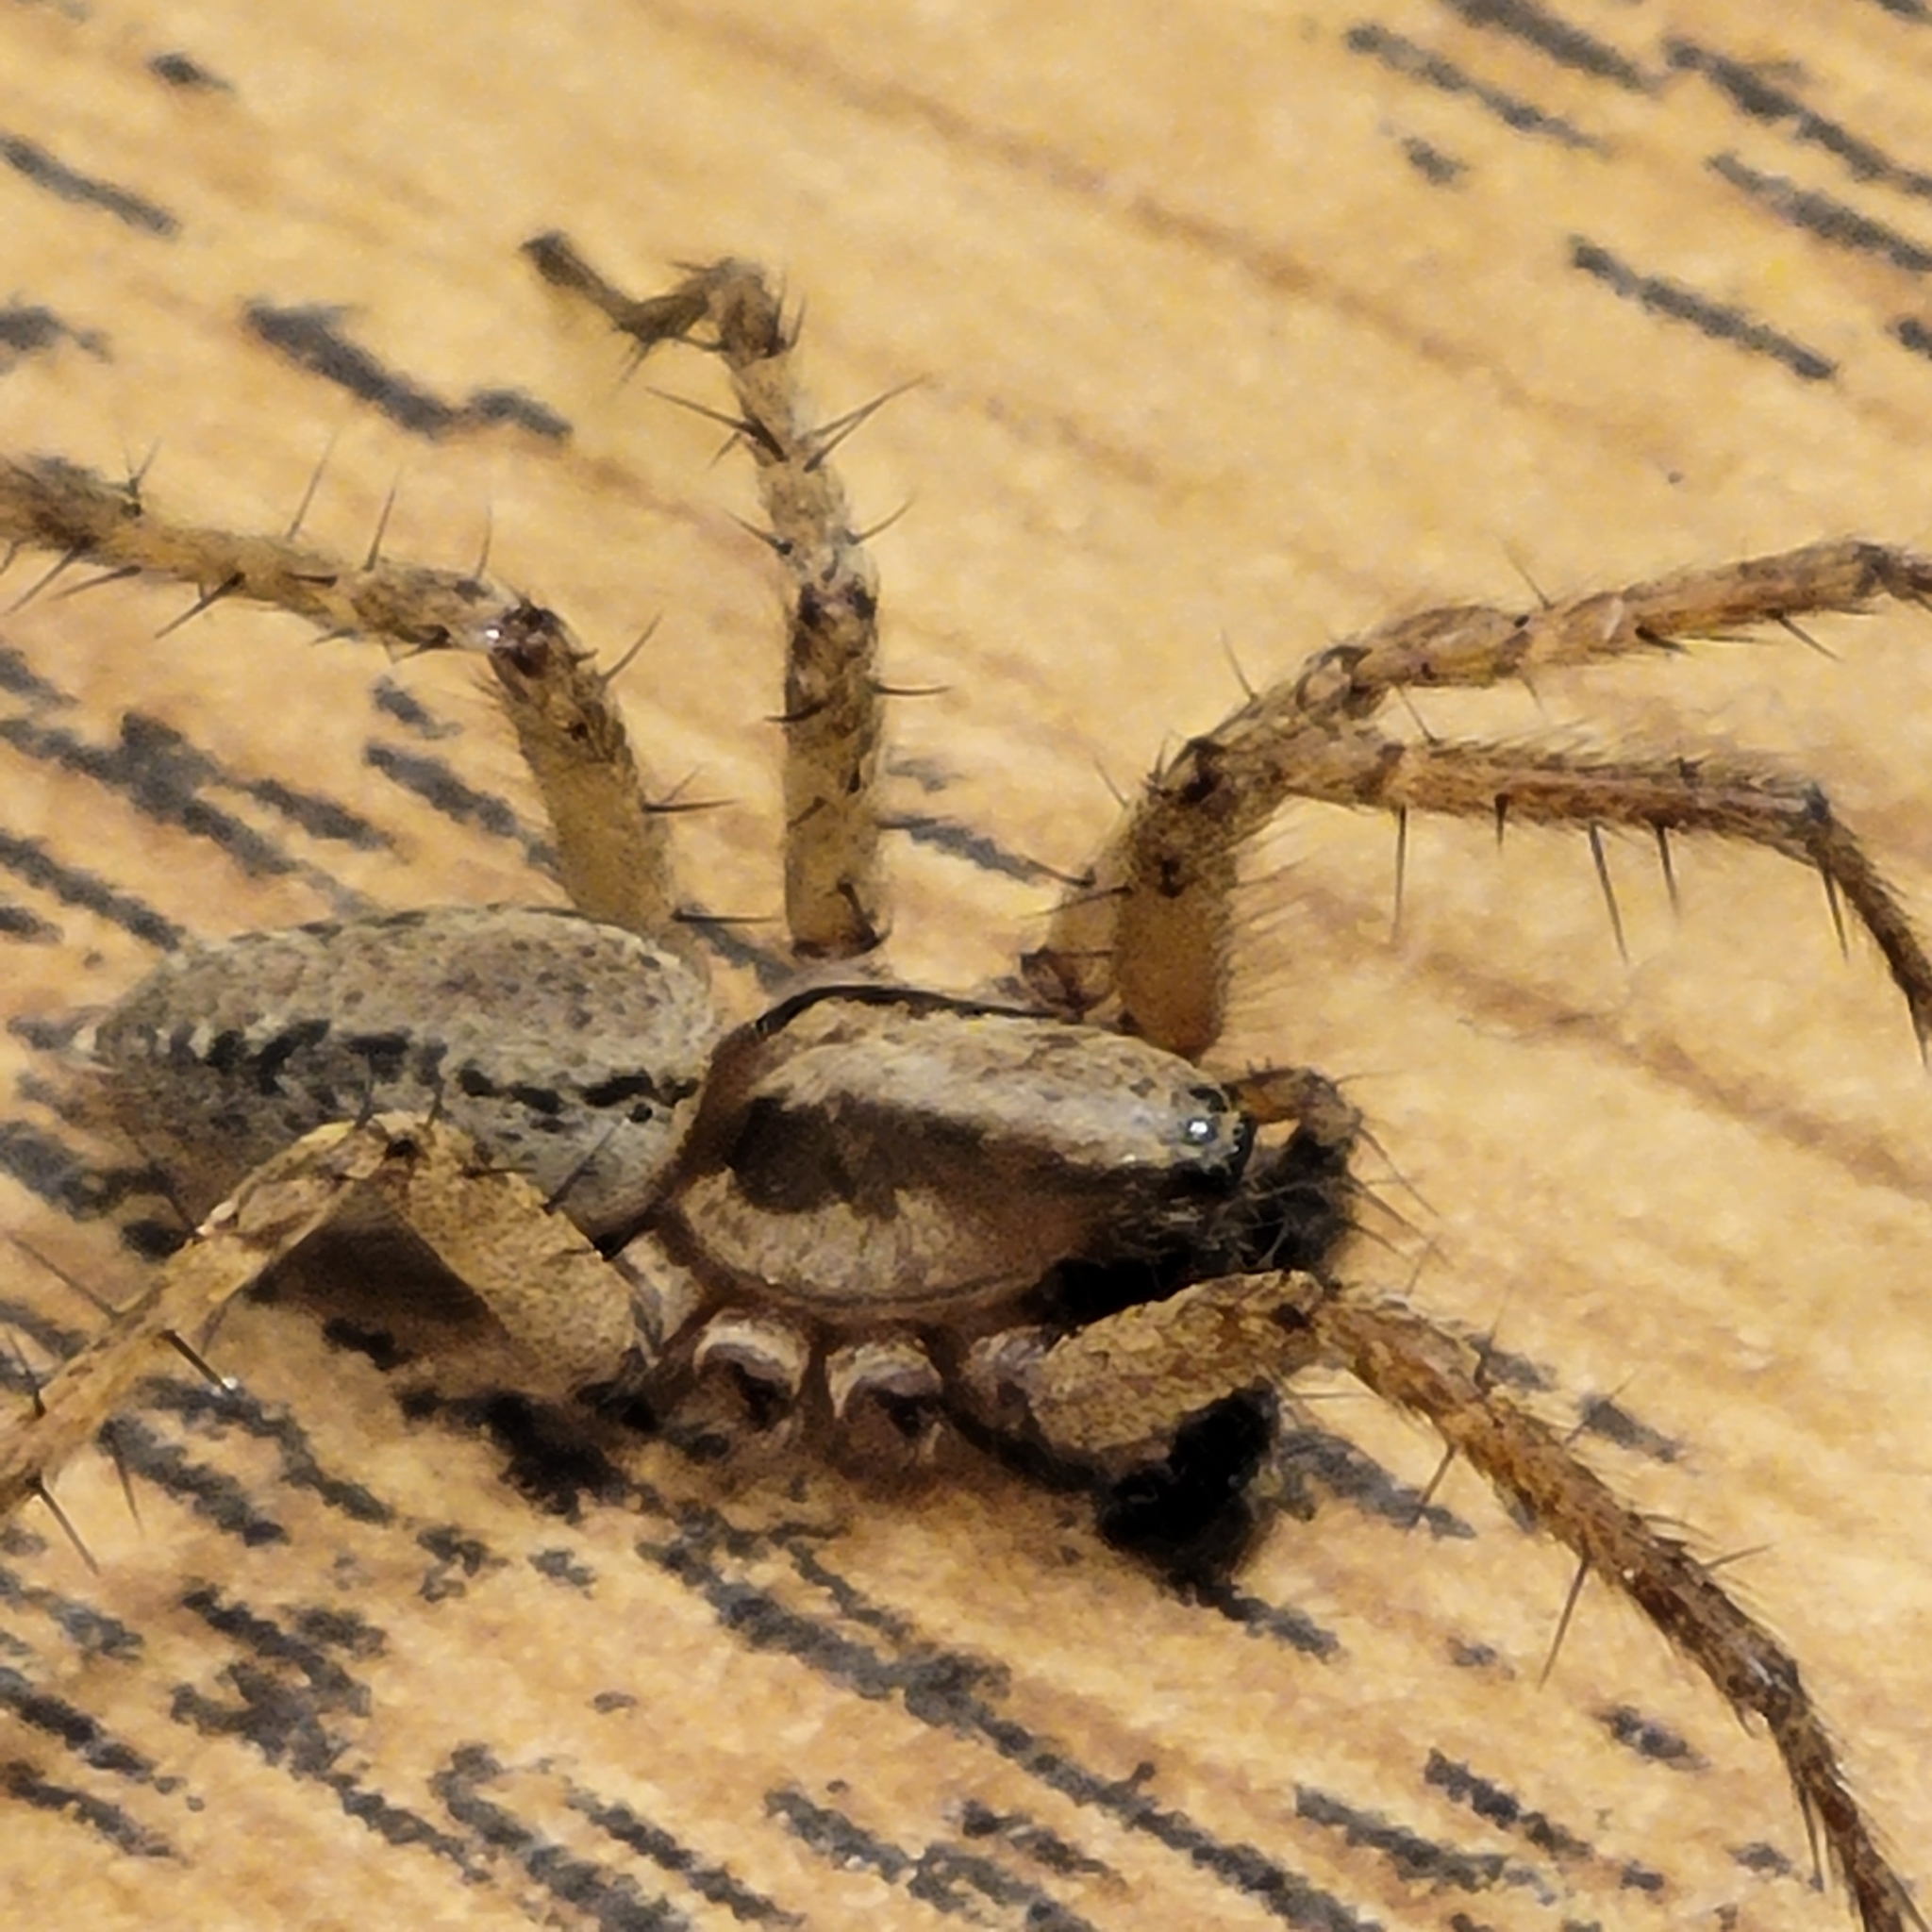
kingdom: Animalia
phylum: Arthropoda
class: Arachnida
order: Araneae
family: Agelenidae
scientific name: Agelenidae
